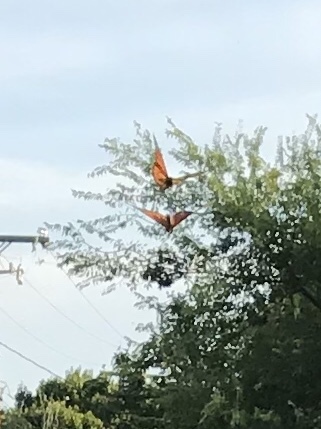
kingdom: Animalia
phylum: Arthropoda
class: Insecta
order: Lepidoptera
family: Nymphalidae
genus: Danaus
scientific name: Danaus plexippus
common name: Monarch
